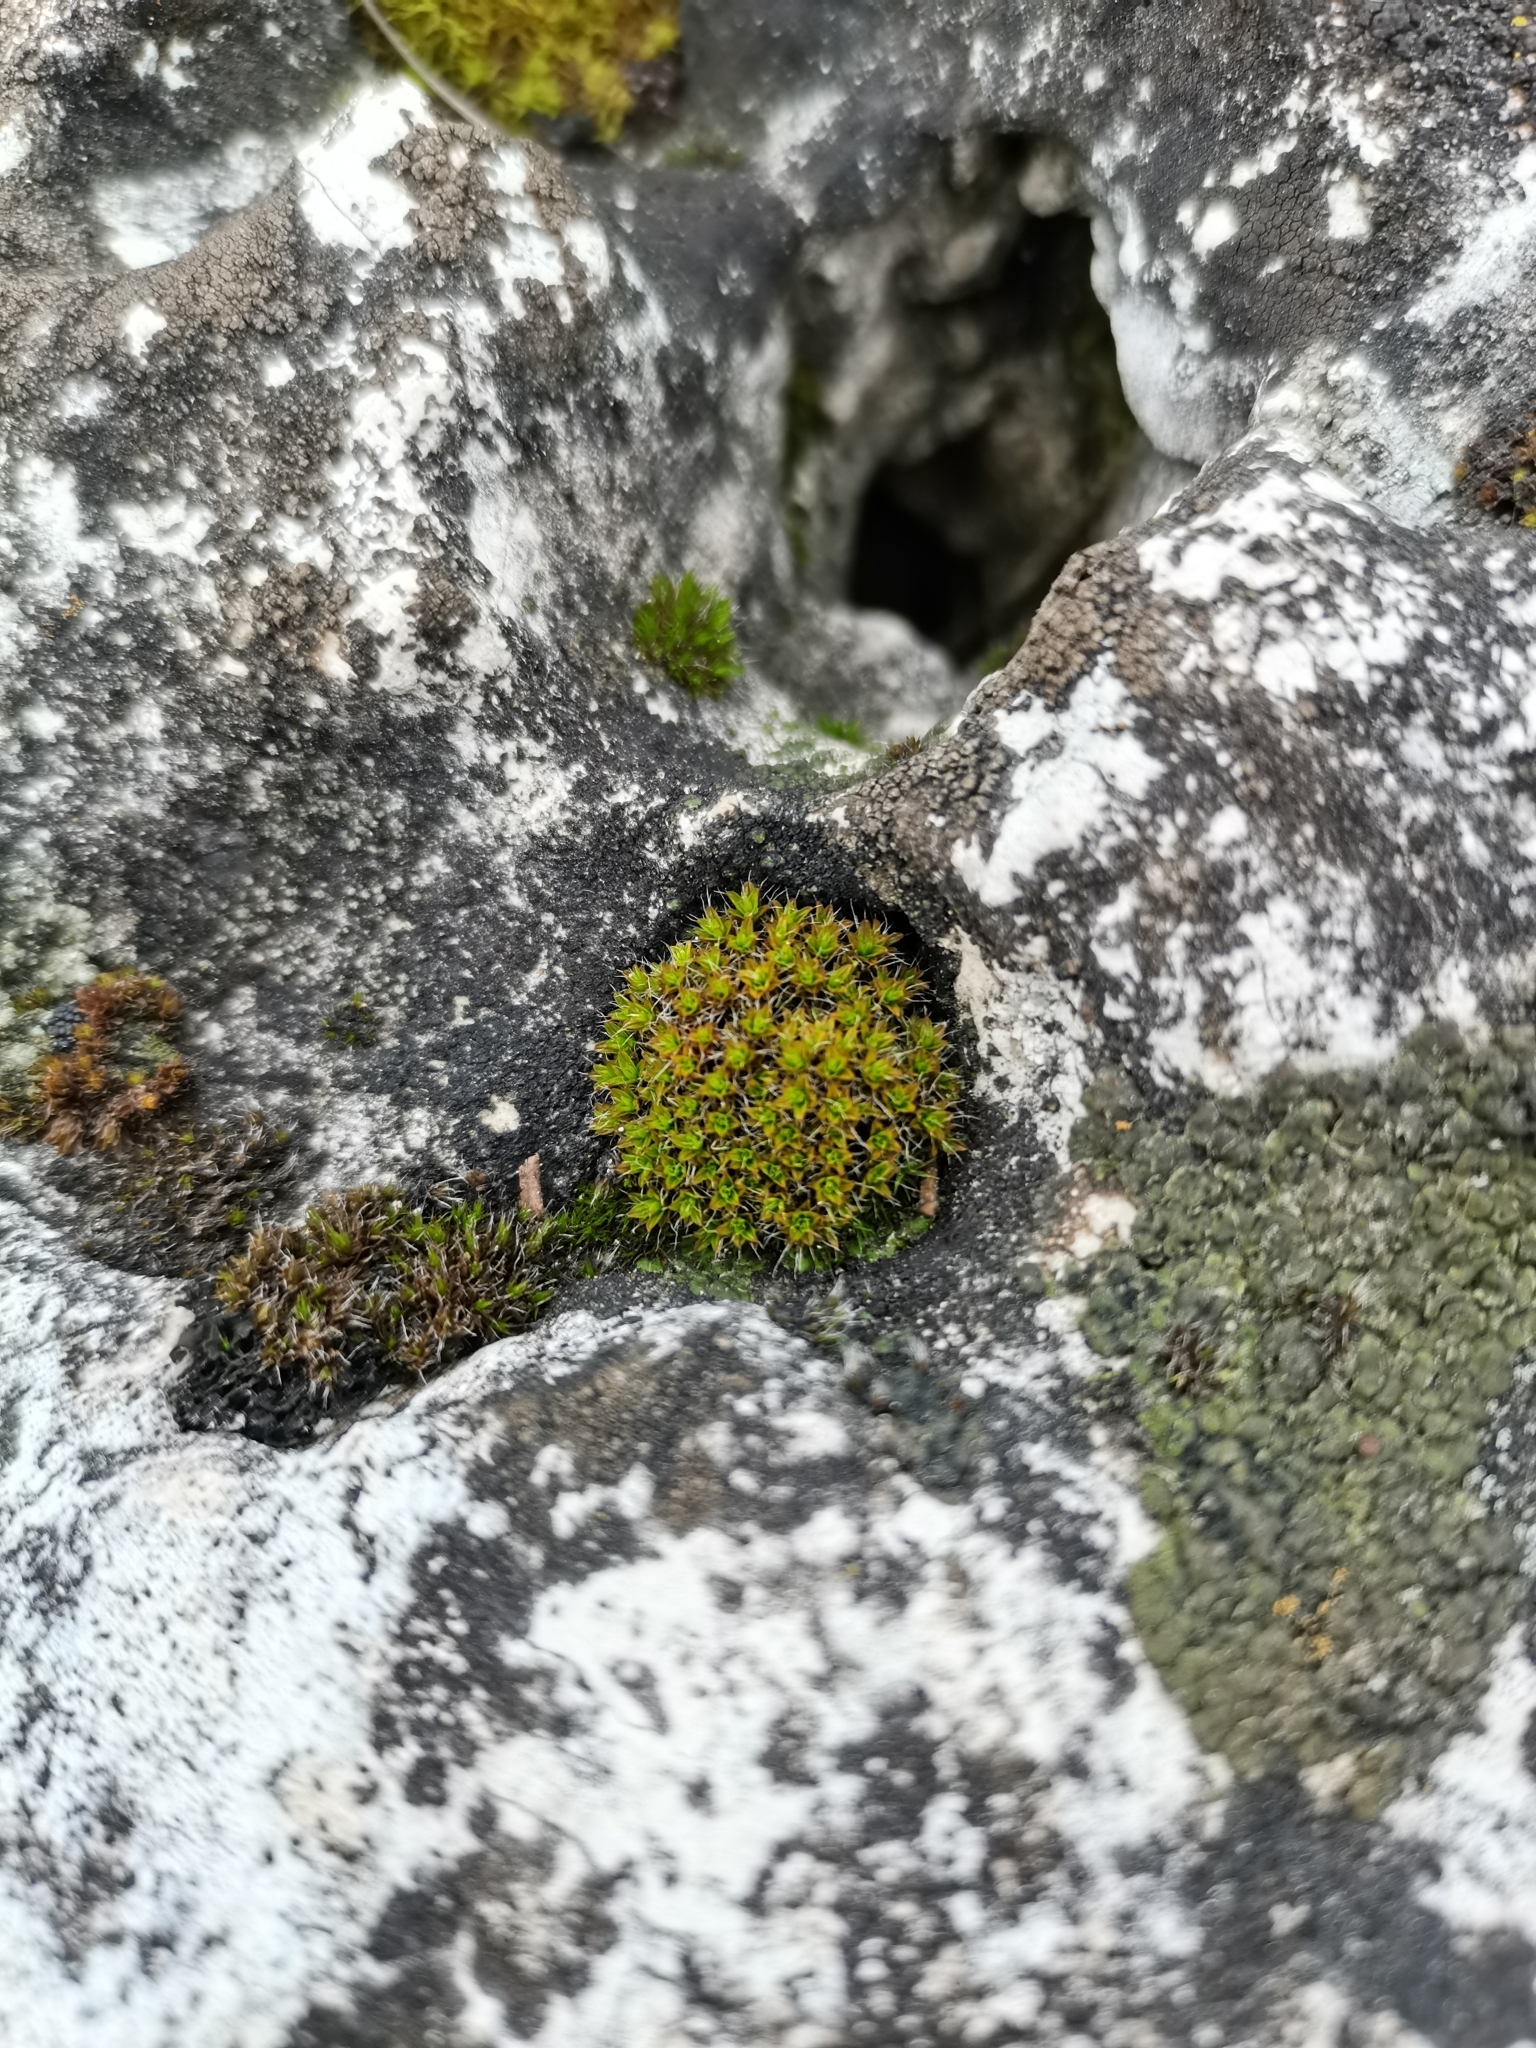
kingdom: Plantae
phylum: Bryophyta
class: Bryopsida
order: Pottiales
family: Pottiaceae
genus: Syntrichia
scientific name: Syntrichia montana
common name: Intermediate screw-moss
